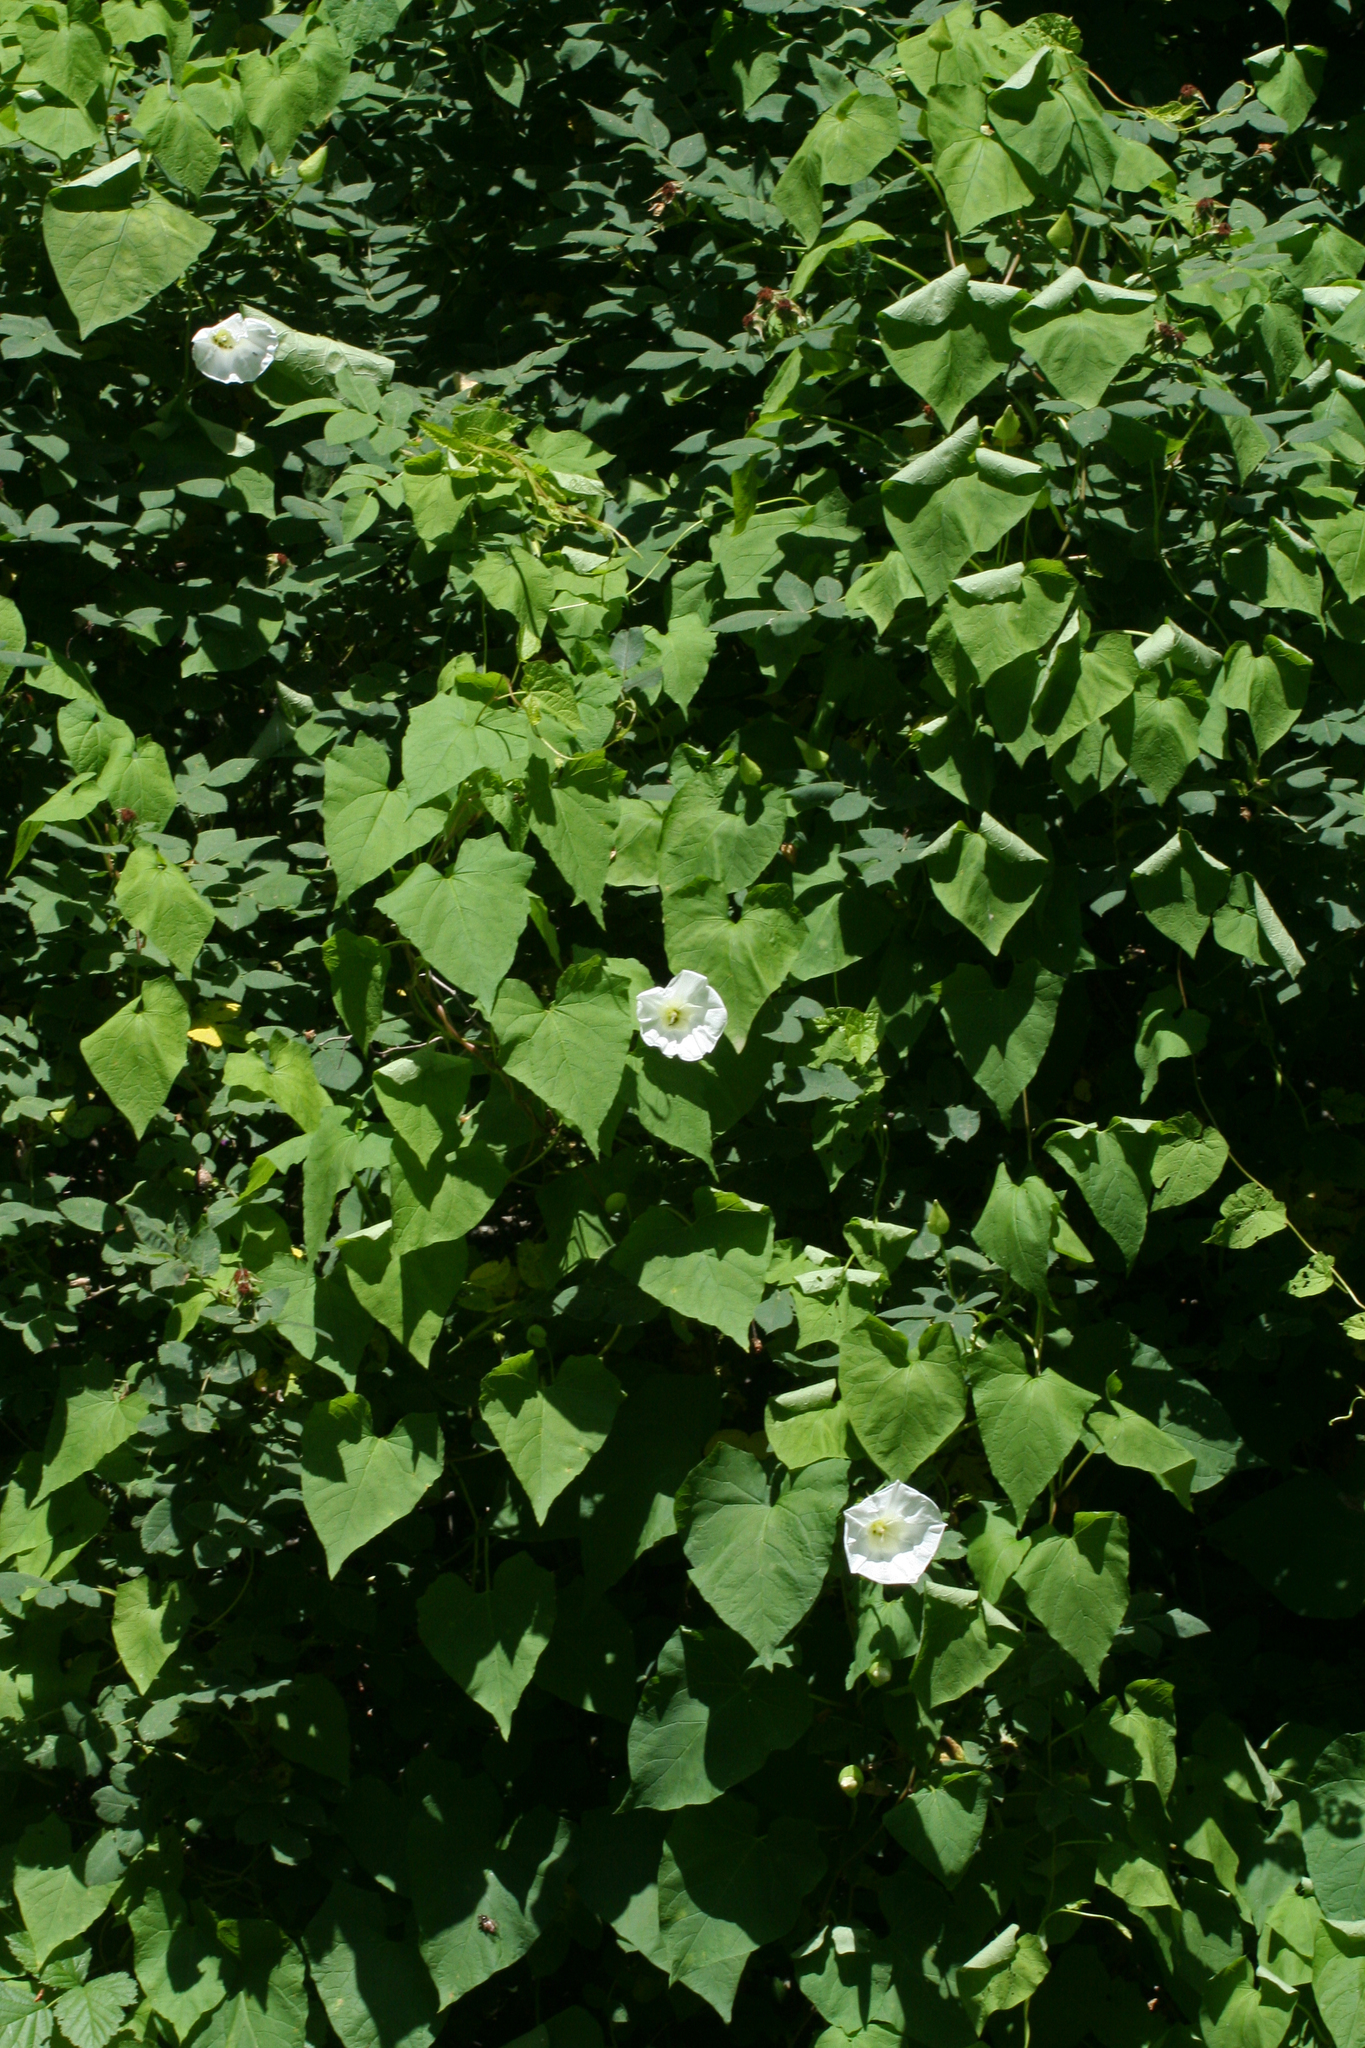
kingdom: Plantae
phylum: Tracheophyta
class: Magnoliopsida
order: Solanales
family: Convolvulaceae
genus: Calystegia
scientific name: Calystegia silvatica
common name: Large bindweed
